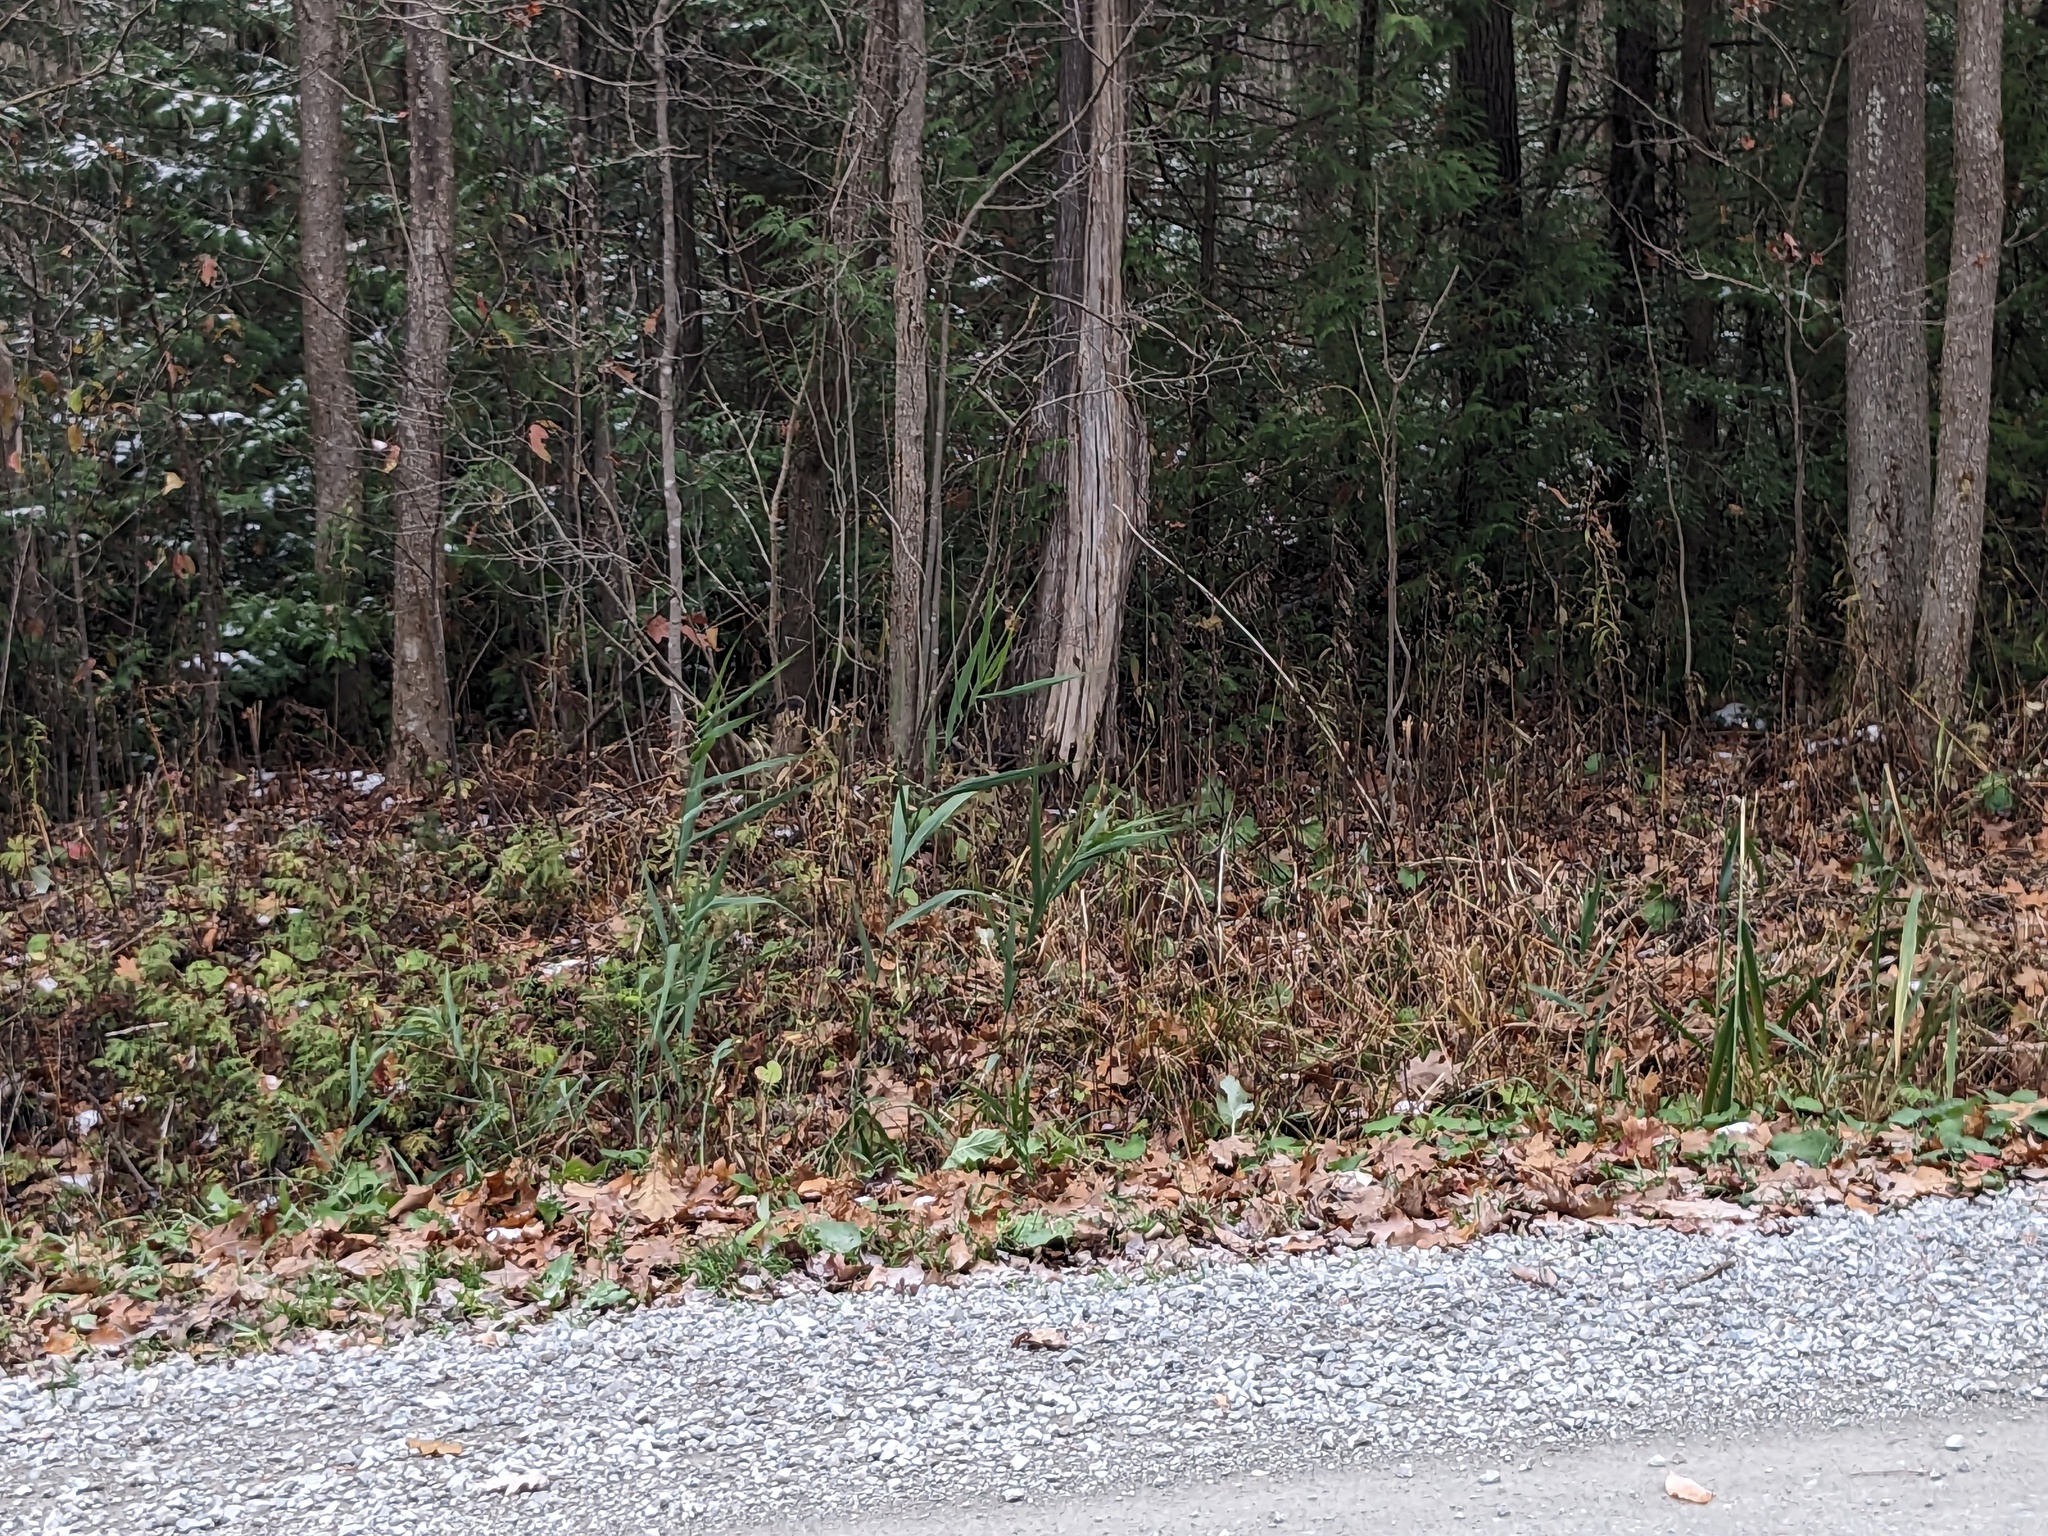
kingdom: Plantae
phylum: Tracheophyta
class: Liliopsida
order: Poales
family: Poaceae
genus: Phragmites
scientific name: Phragmites australis
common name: Common reed
